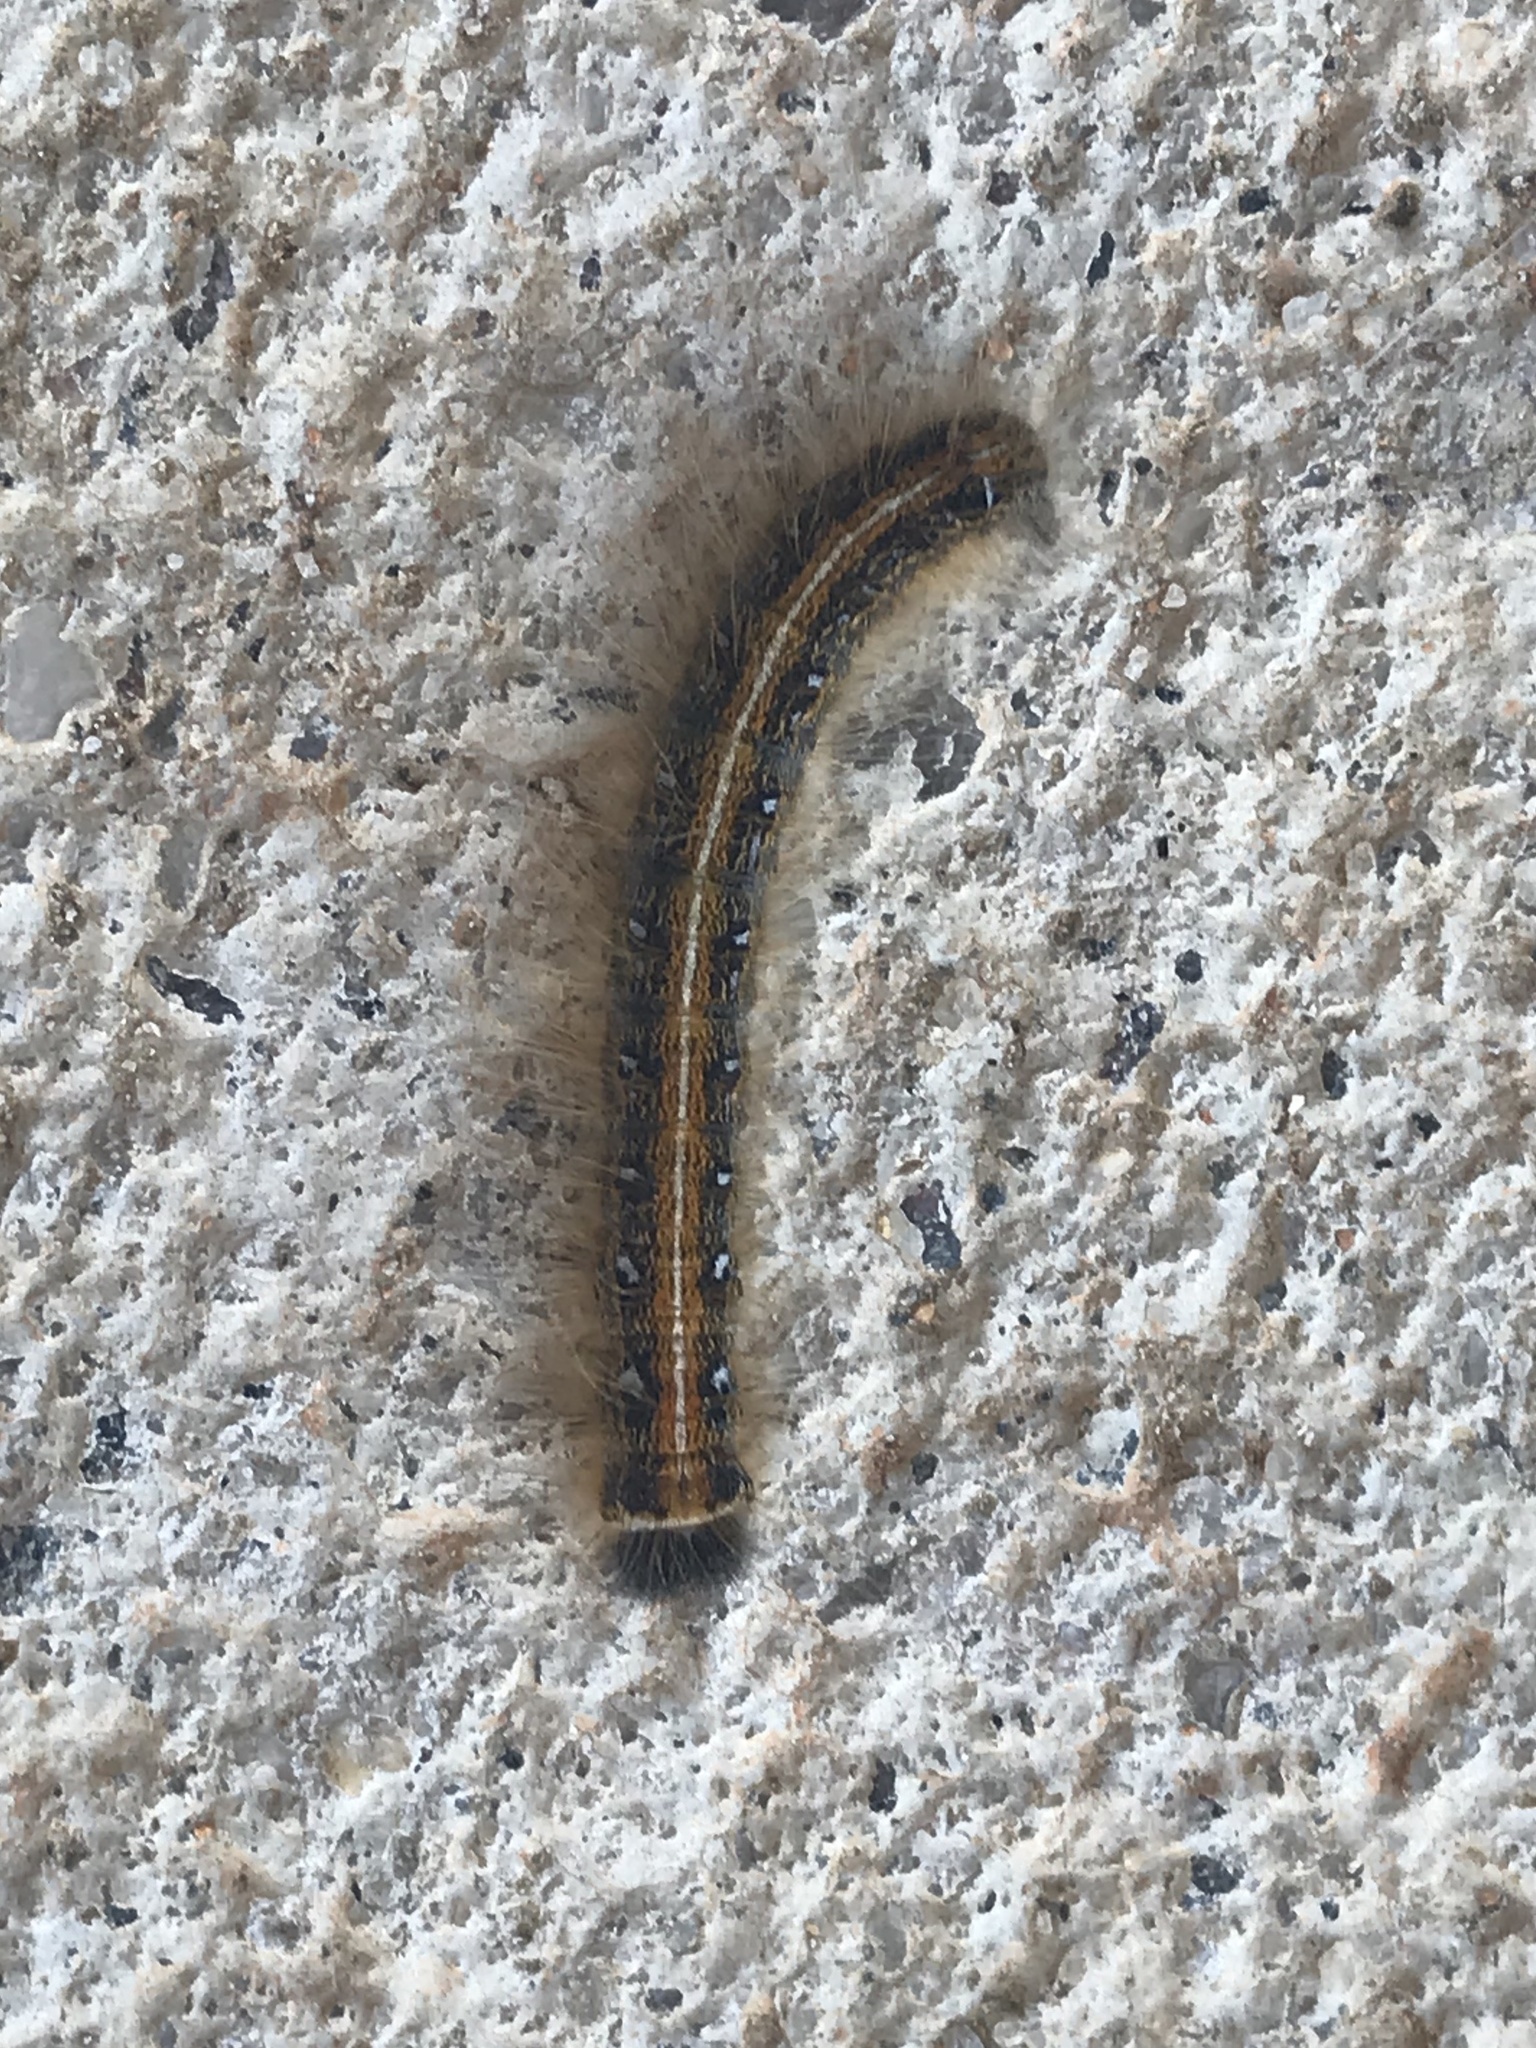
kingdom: Animalia
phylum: Arthropoda
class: Insecta
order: Lepidoptera
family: Lasiocampidae
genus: Malacosoma
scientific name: Malacosoma americana
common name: Eastern tent caterpillar moth
